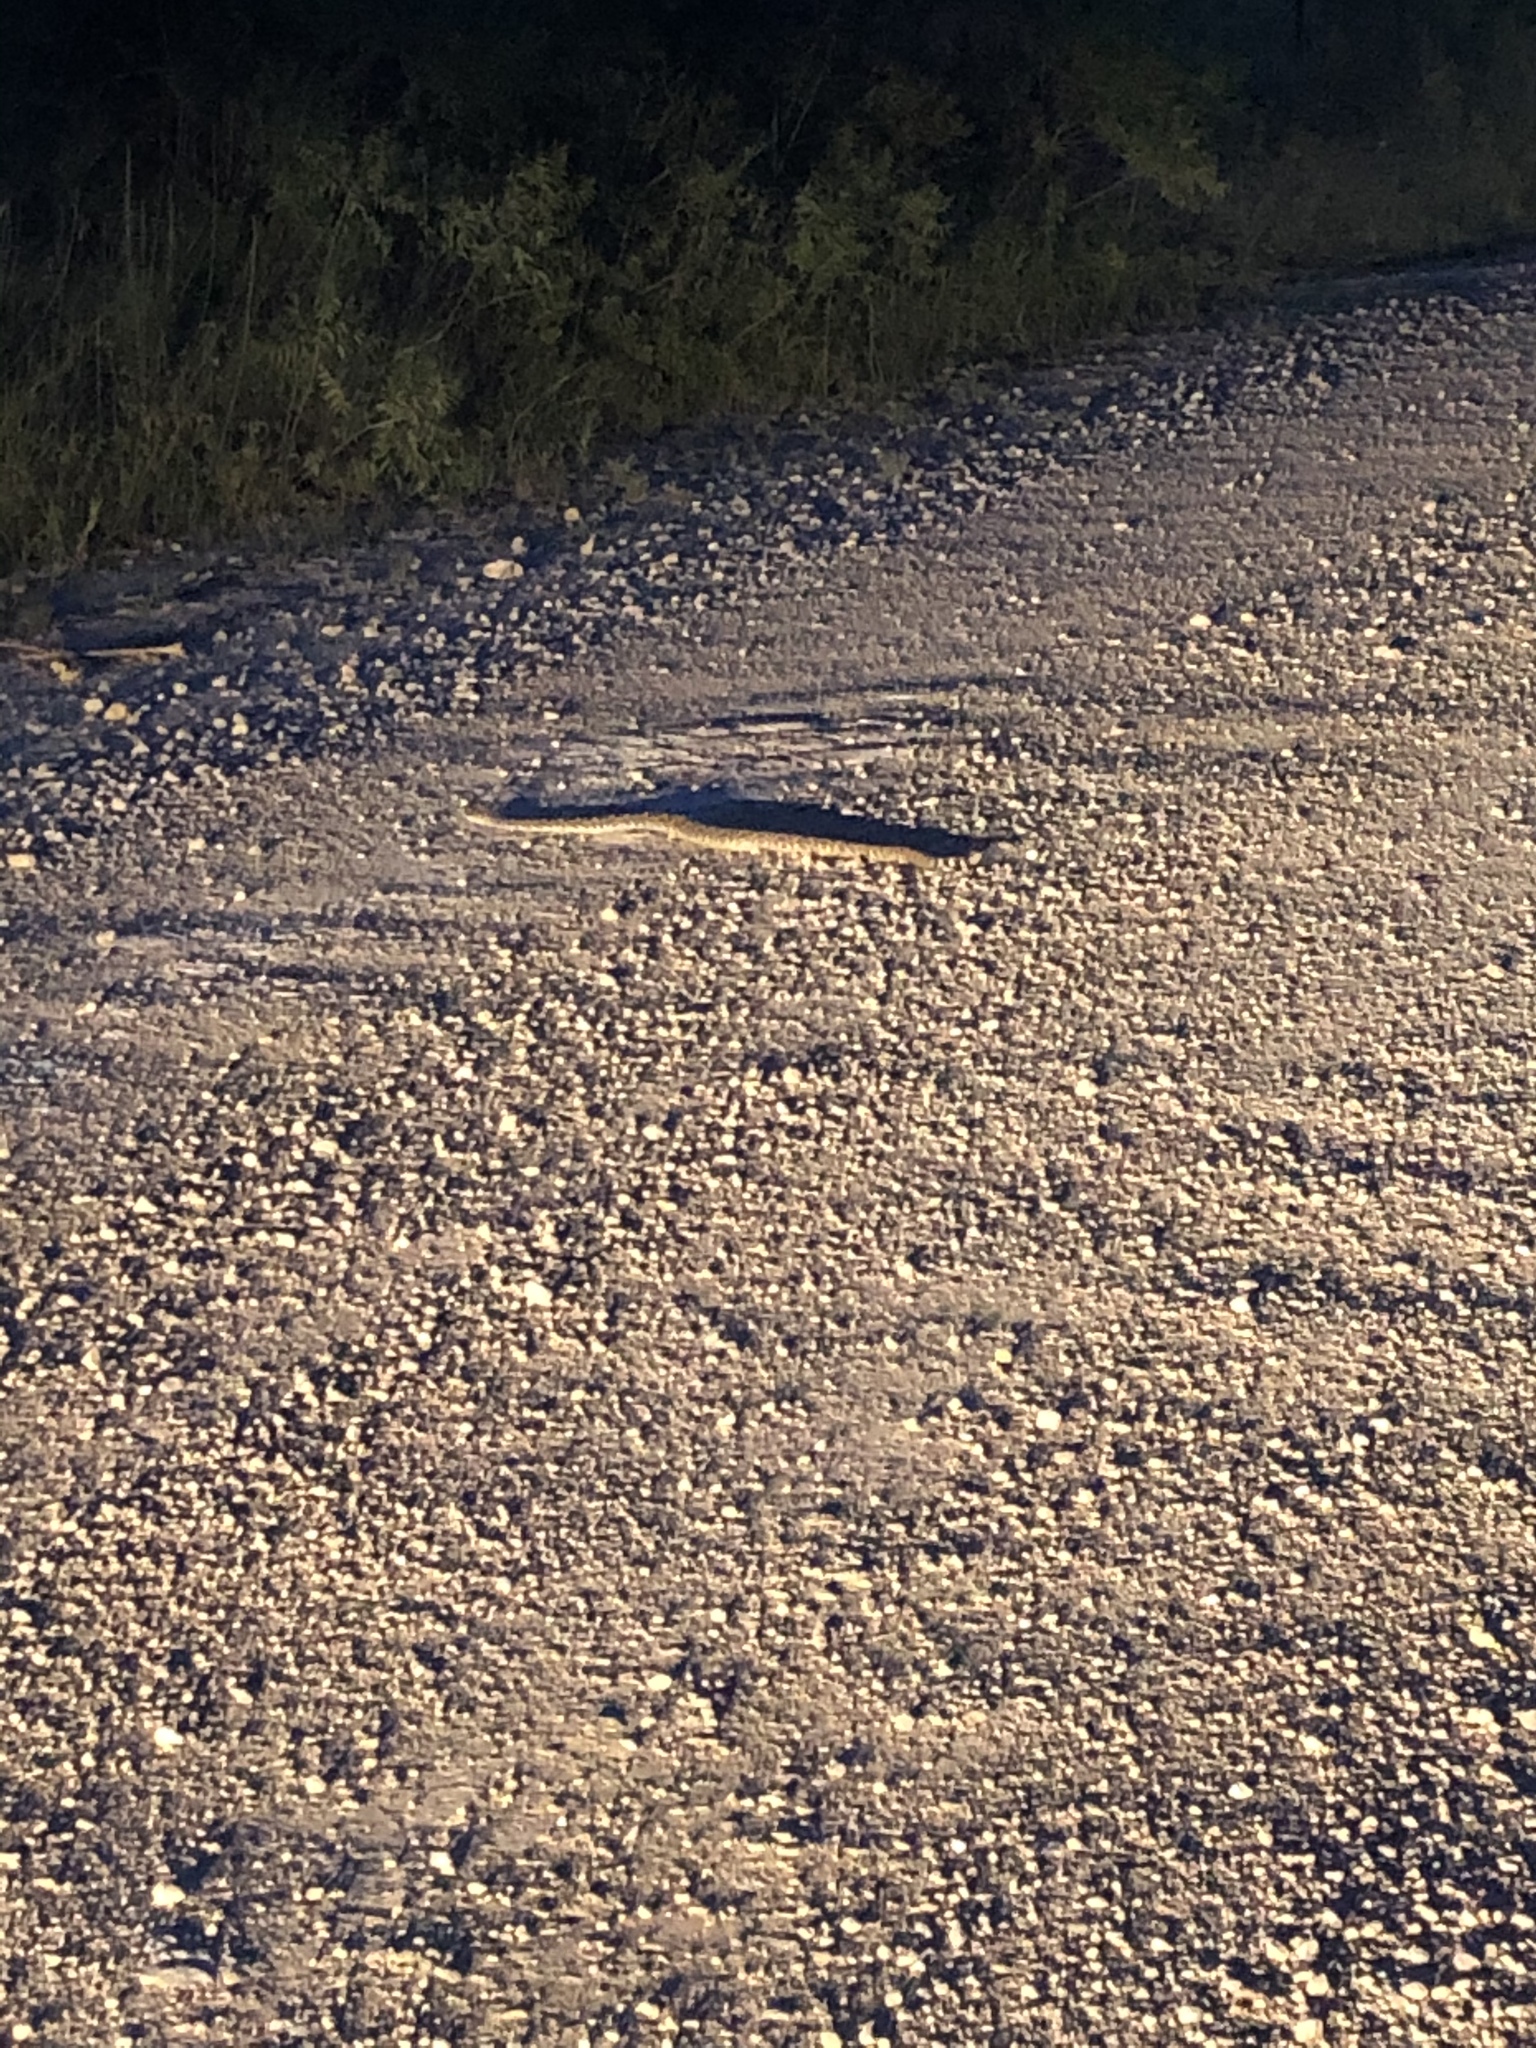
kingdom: Animalia
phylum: Chordata
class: Squamata
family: Viperidae
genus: Crotalus
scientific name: Crotalus atrox
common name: Western diamond-backed rattlesnake
